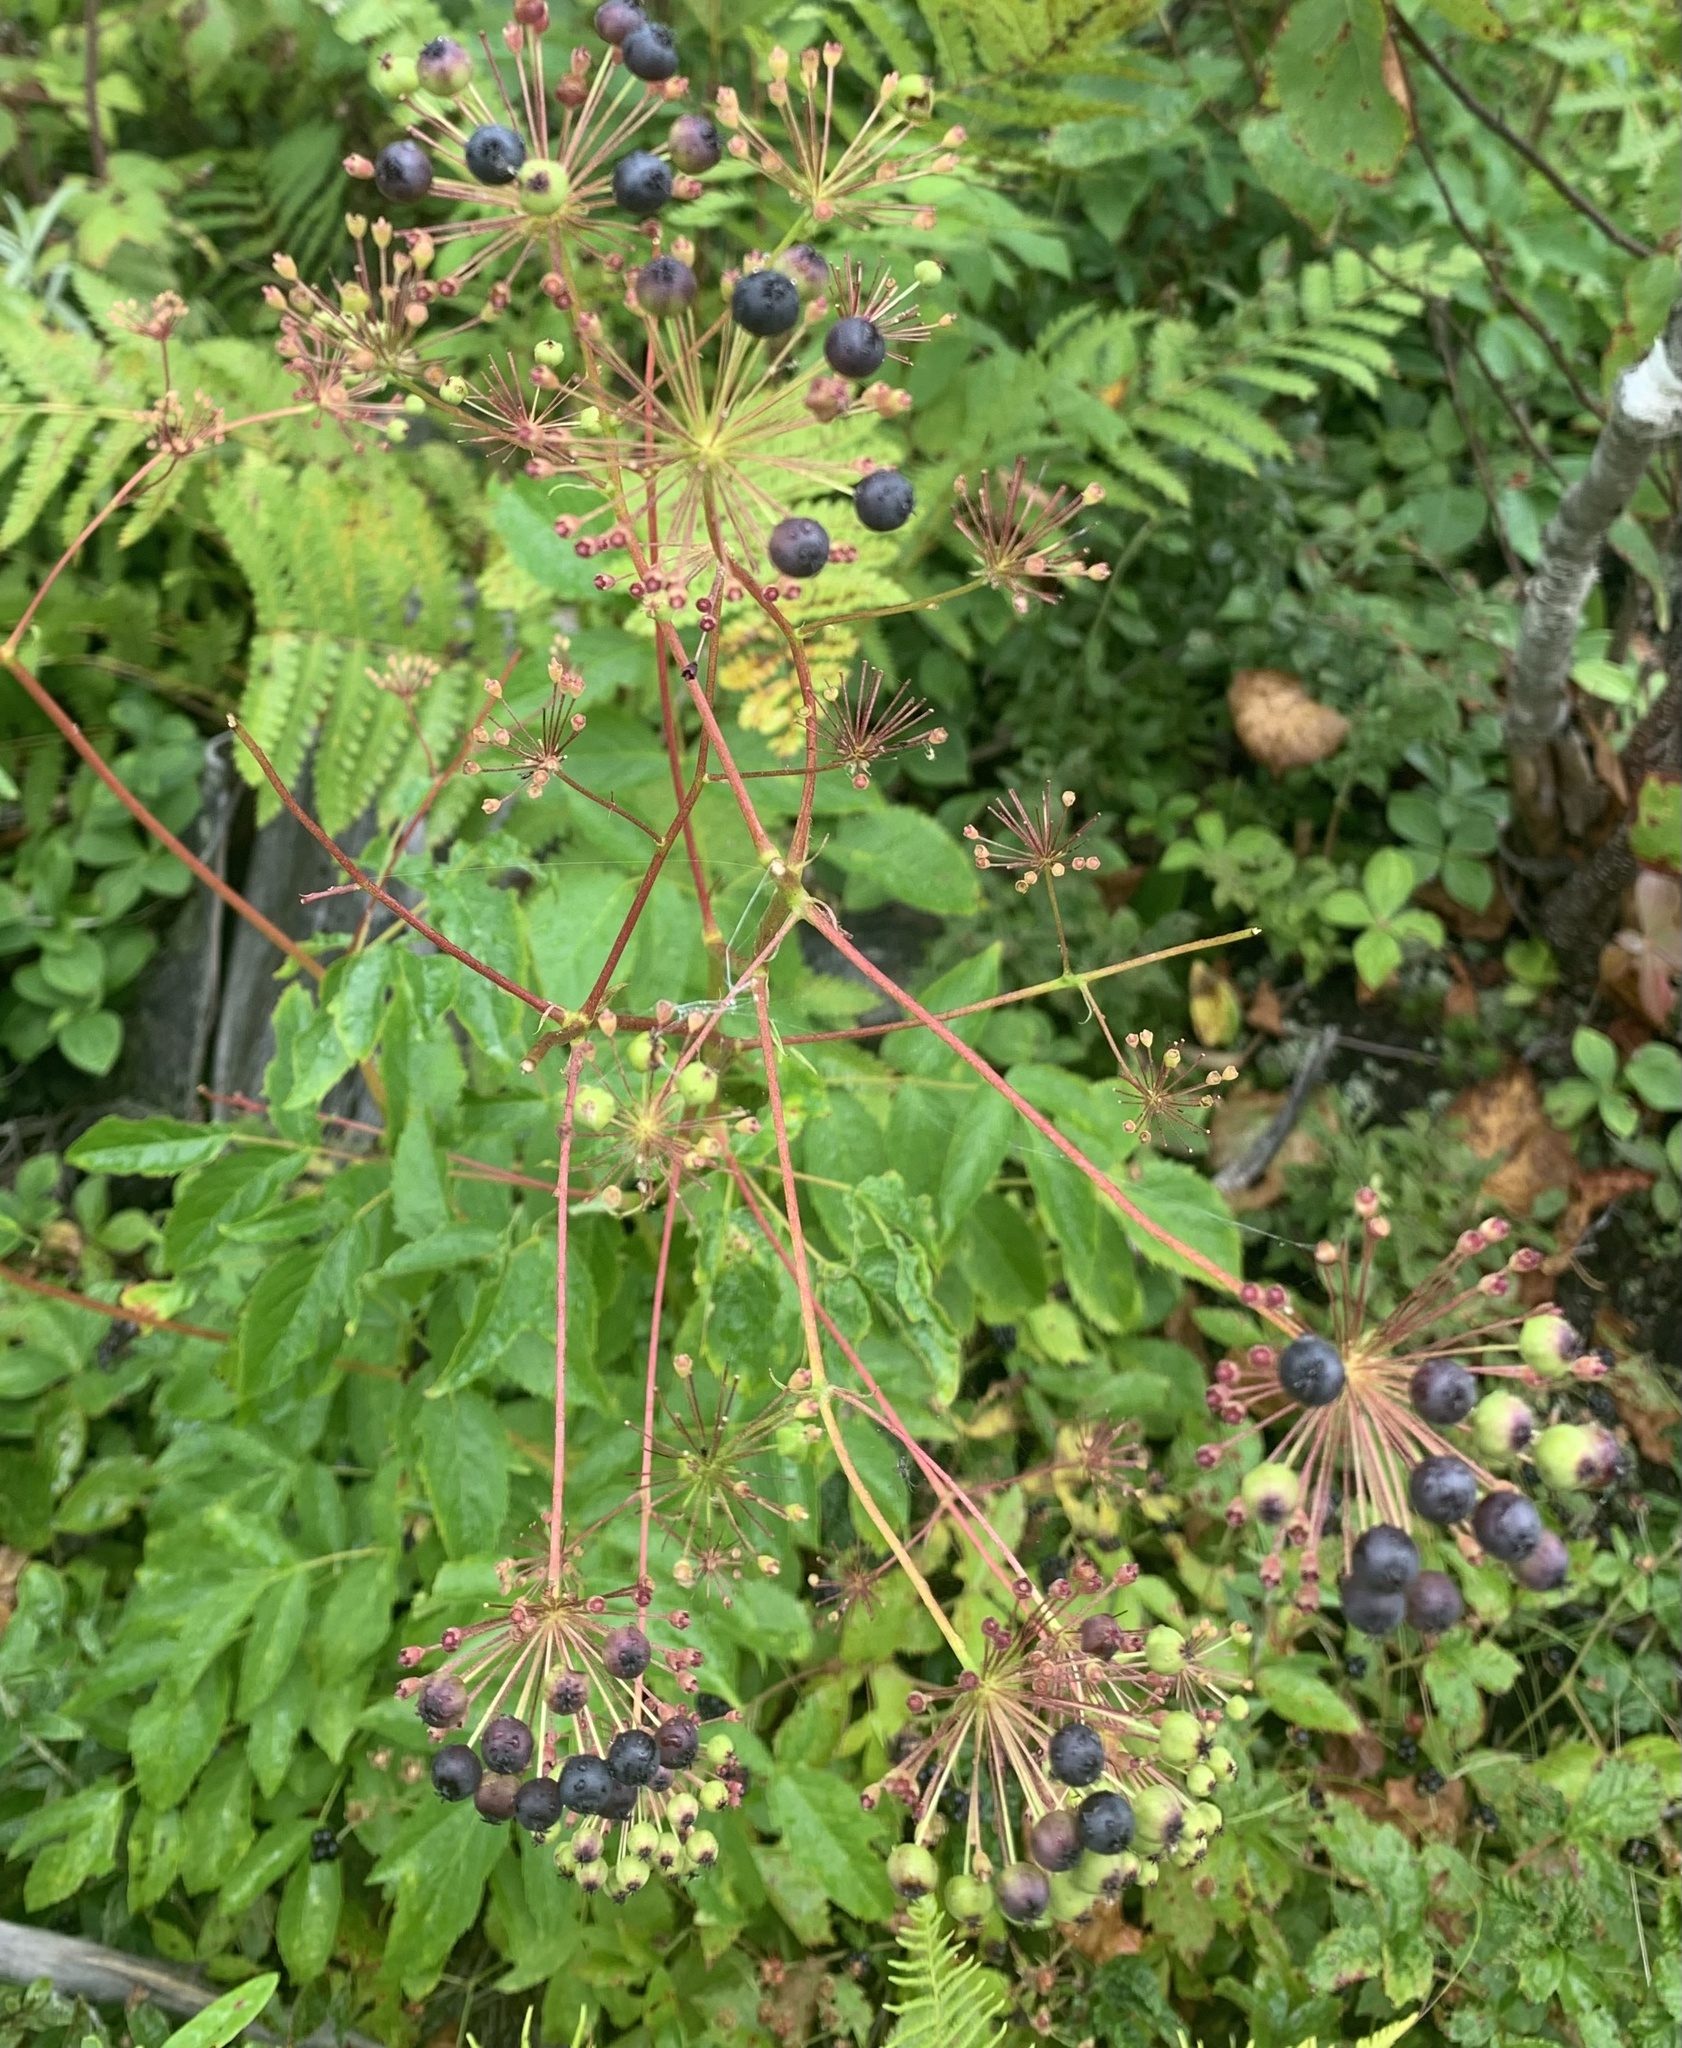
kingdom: Plantae
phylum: Tracheophyta
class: Magnoliopsida
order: Apiales
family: Araliaceae
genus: Aralia
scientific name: Aralia hispida
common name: Bristly sarsaparilla
